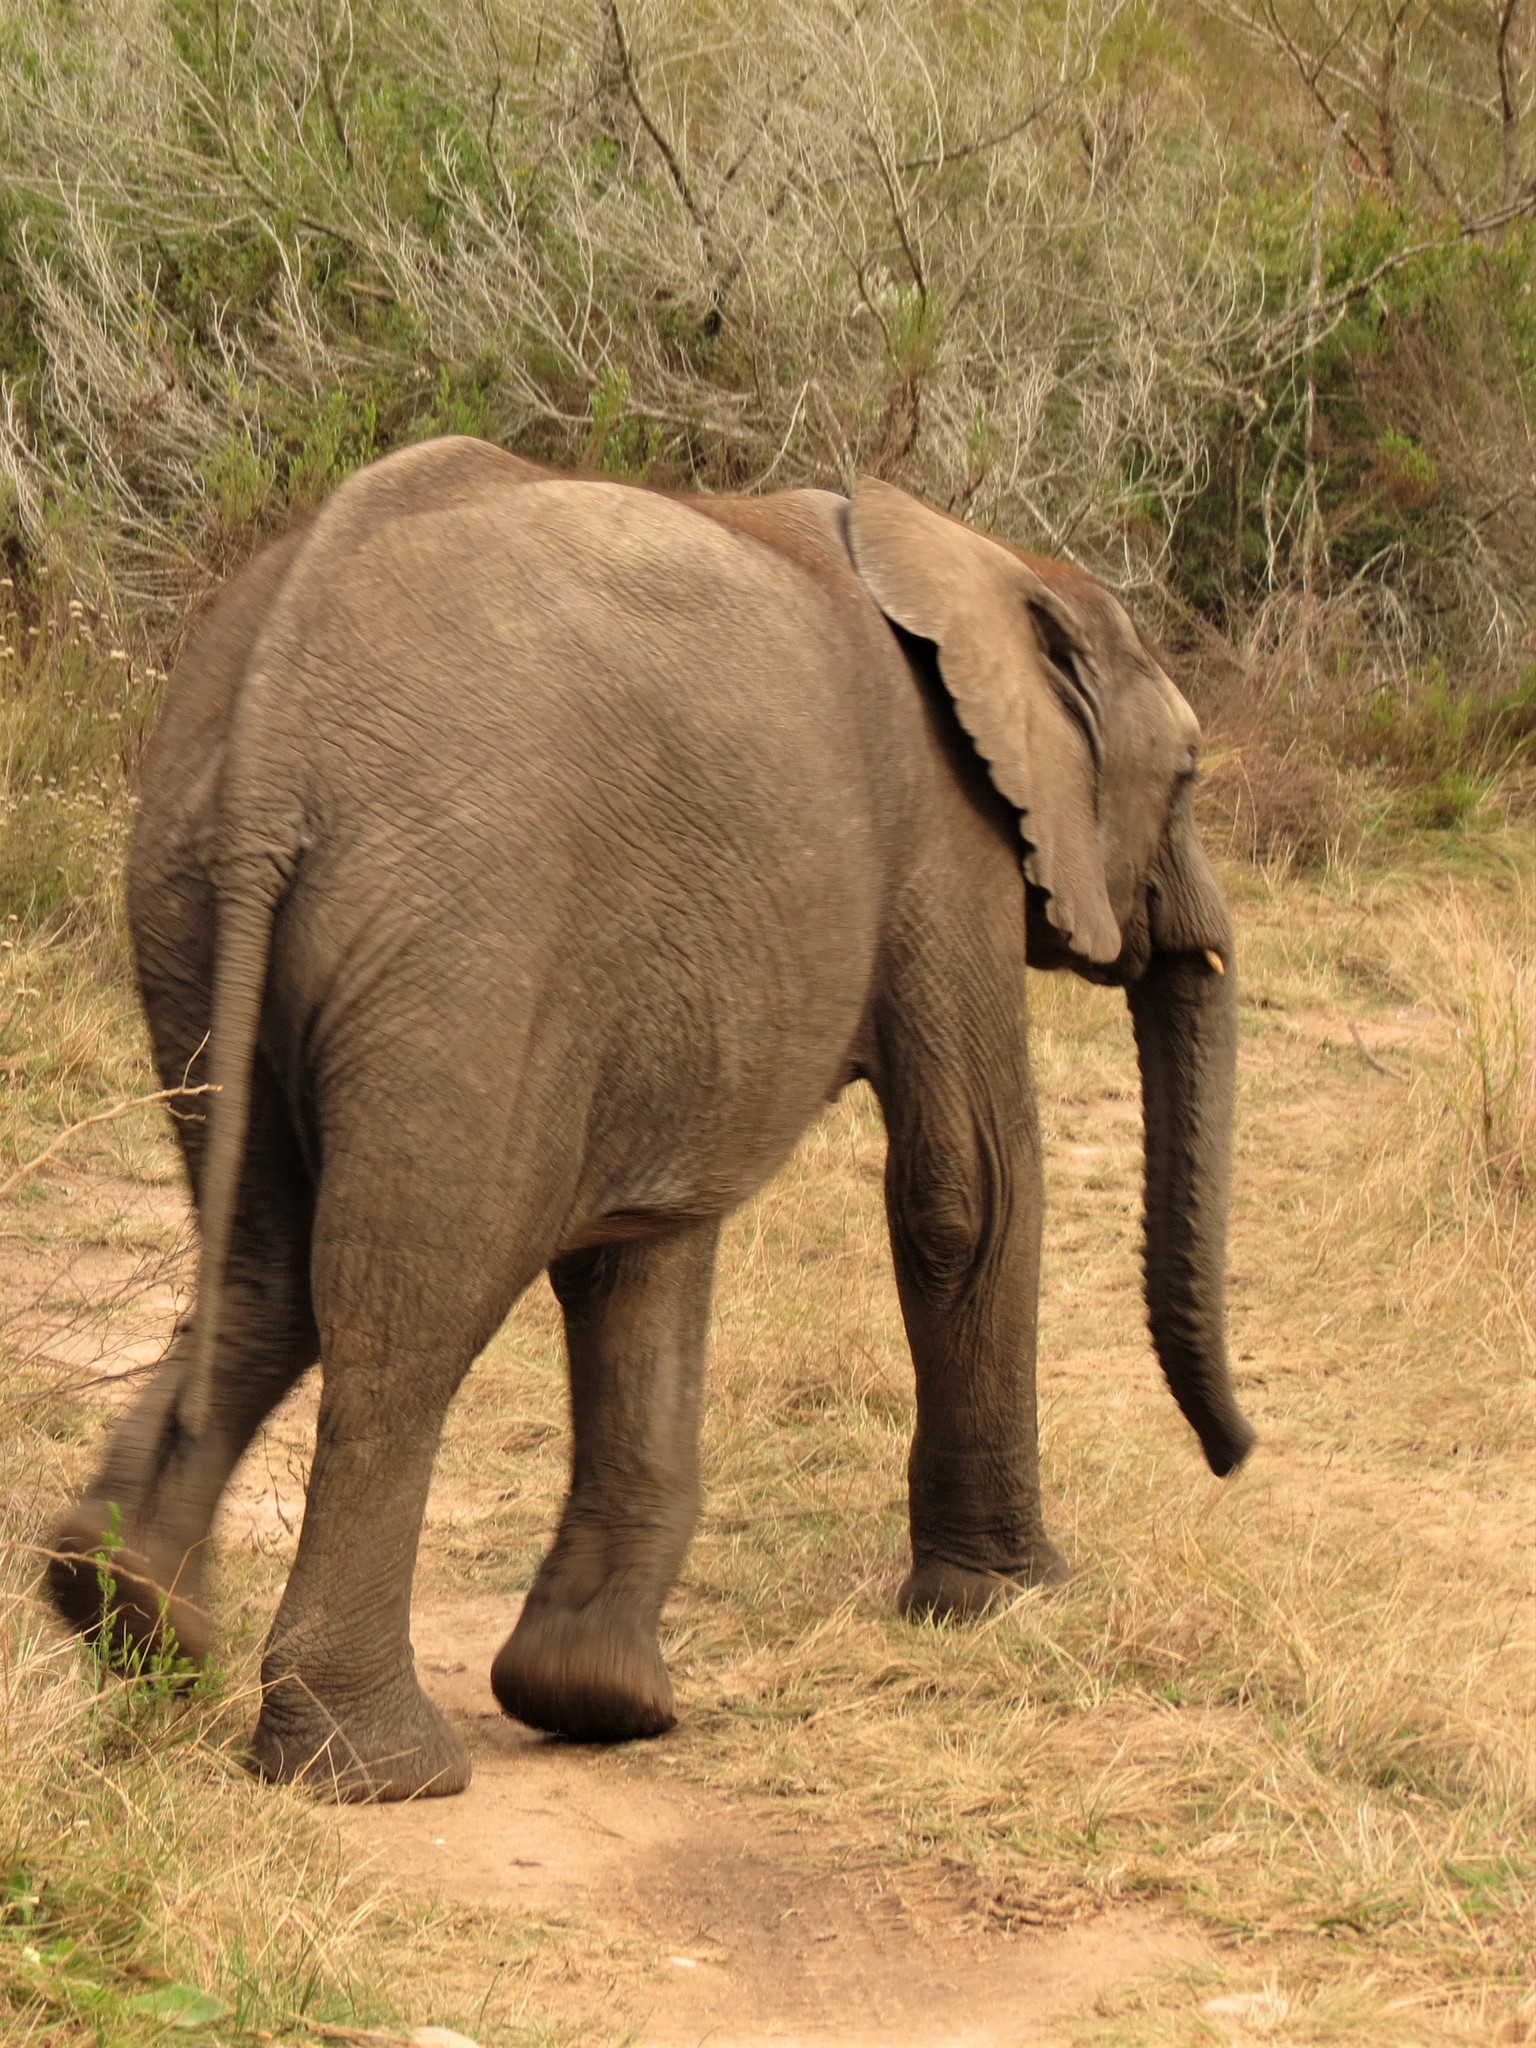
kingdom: Animalia
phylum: Chordata
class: Mammalia
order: Proboscidea
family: Elephantidae
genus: Loxodonta
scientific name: Loxodonta africana
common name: African elephant
